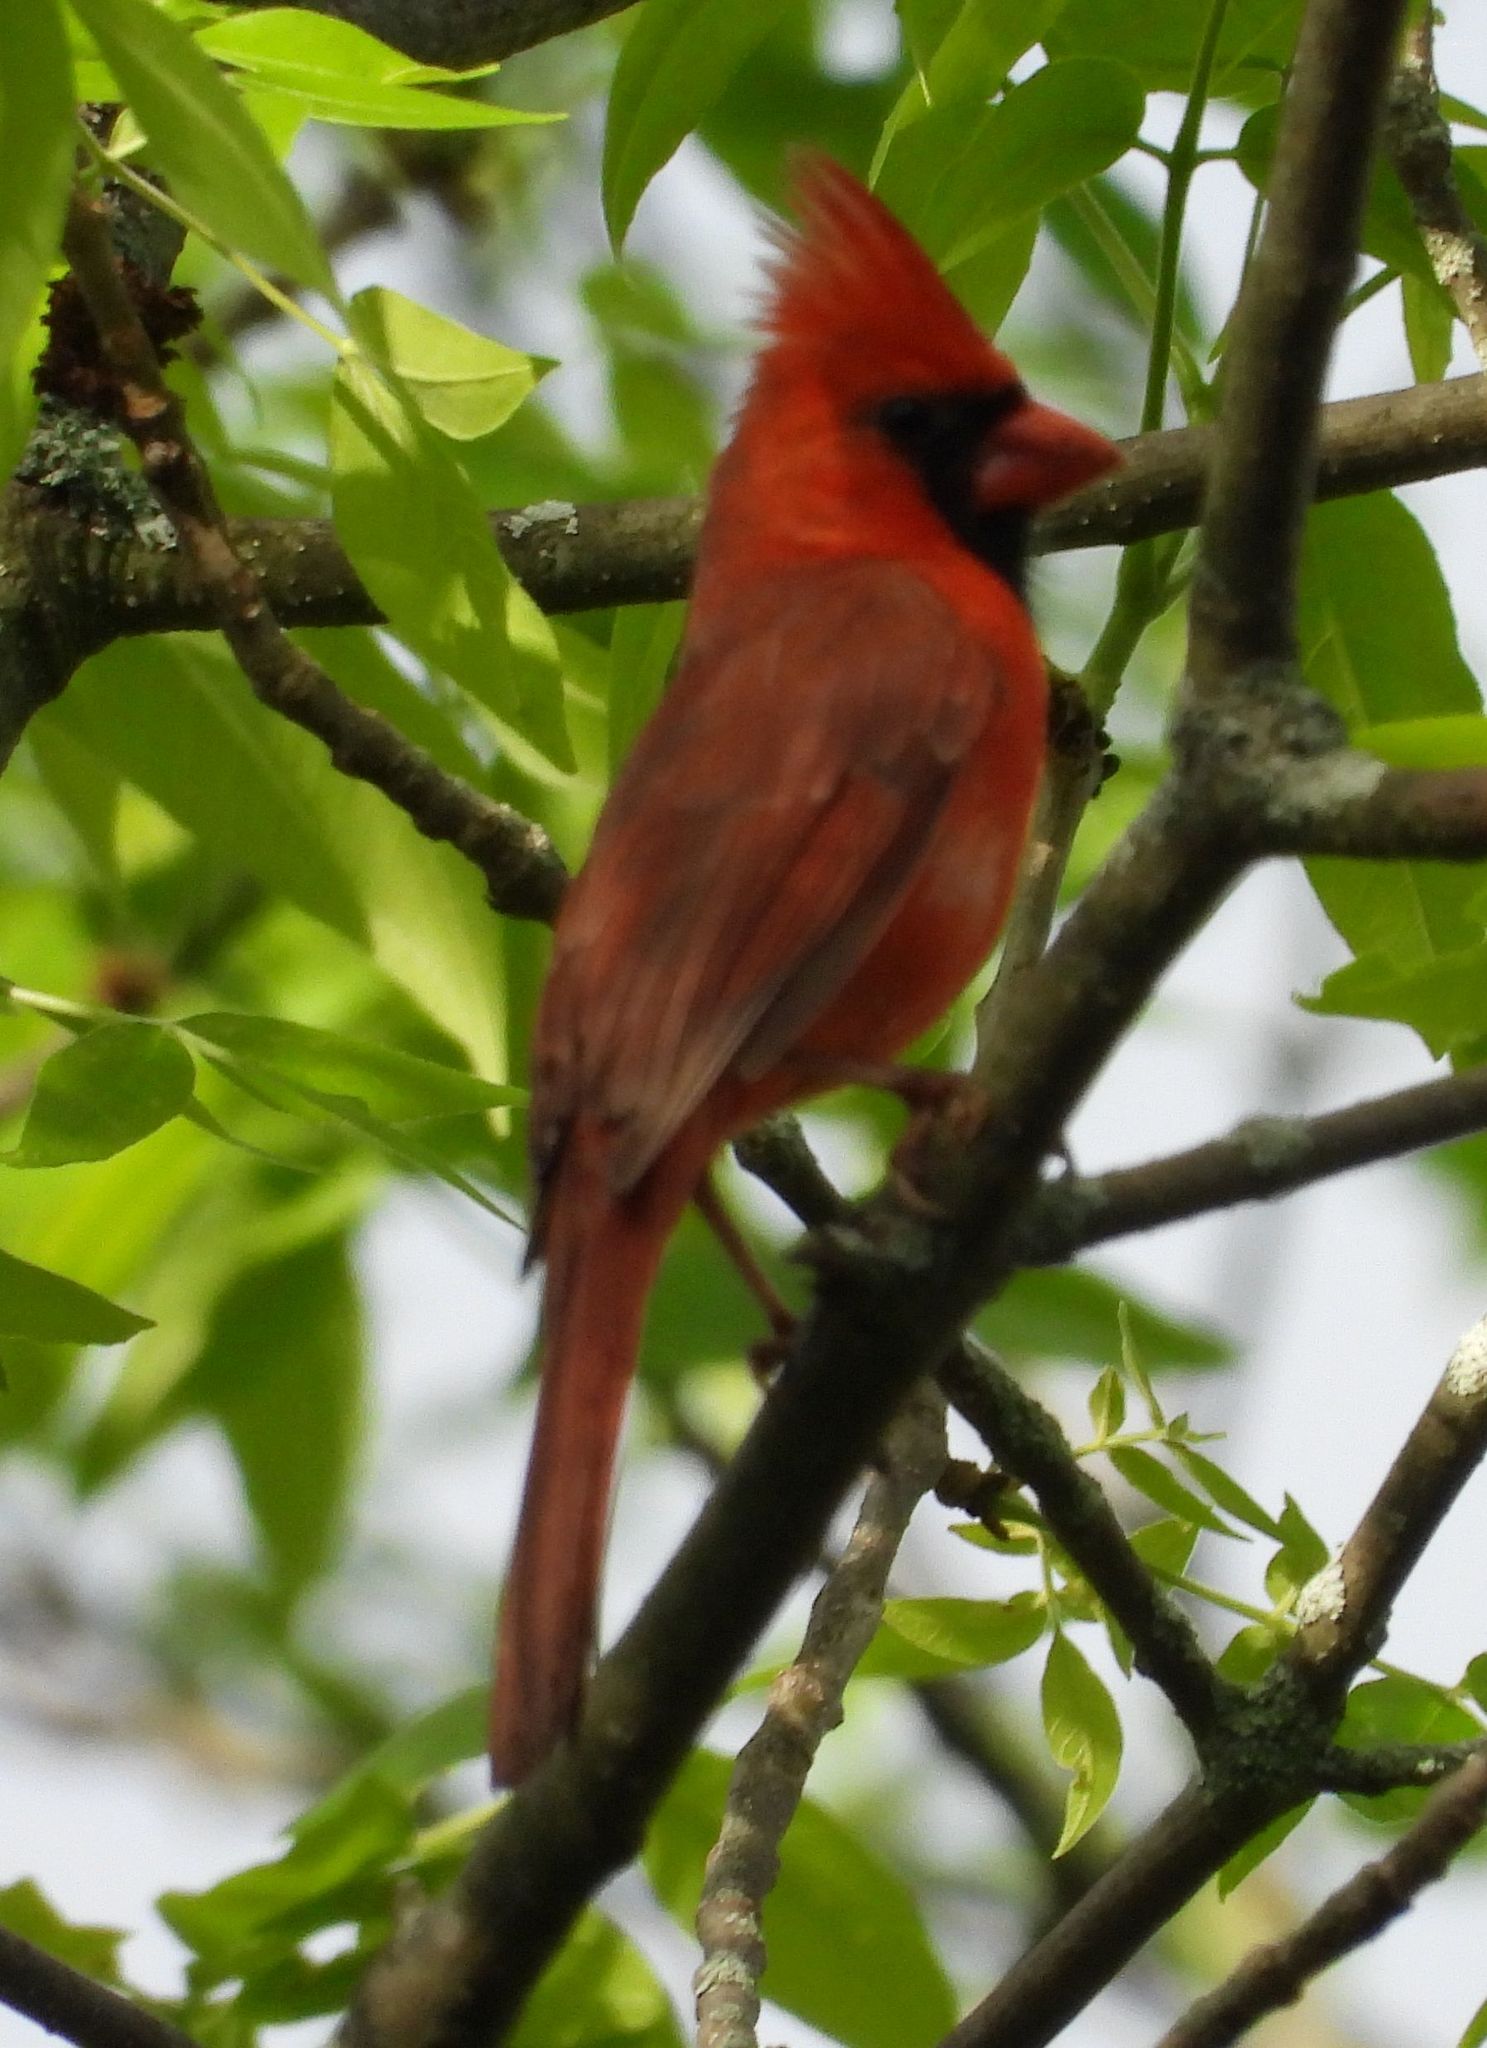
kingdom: Animalia
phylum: Chordata
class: Aves
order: Passeriformes
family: Cardinalidae
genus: Cardinalis
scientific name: Cardinalis cardinalis
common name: Northern cardinal
